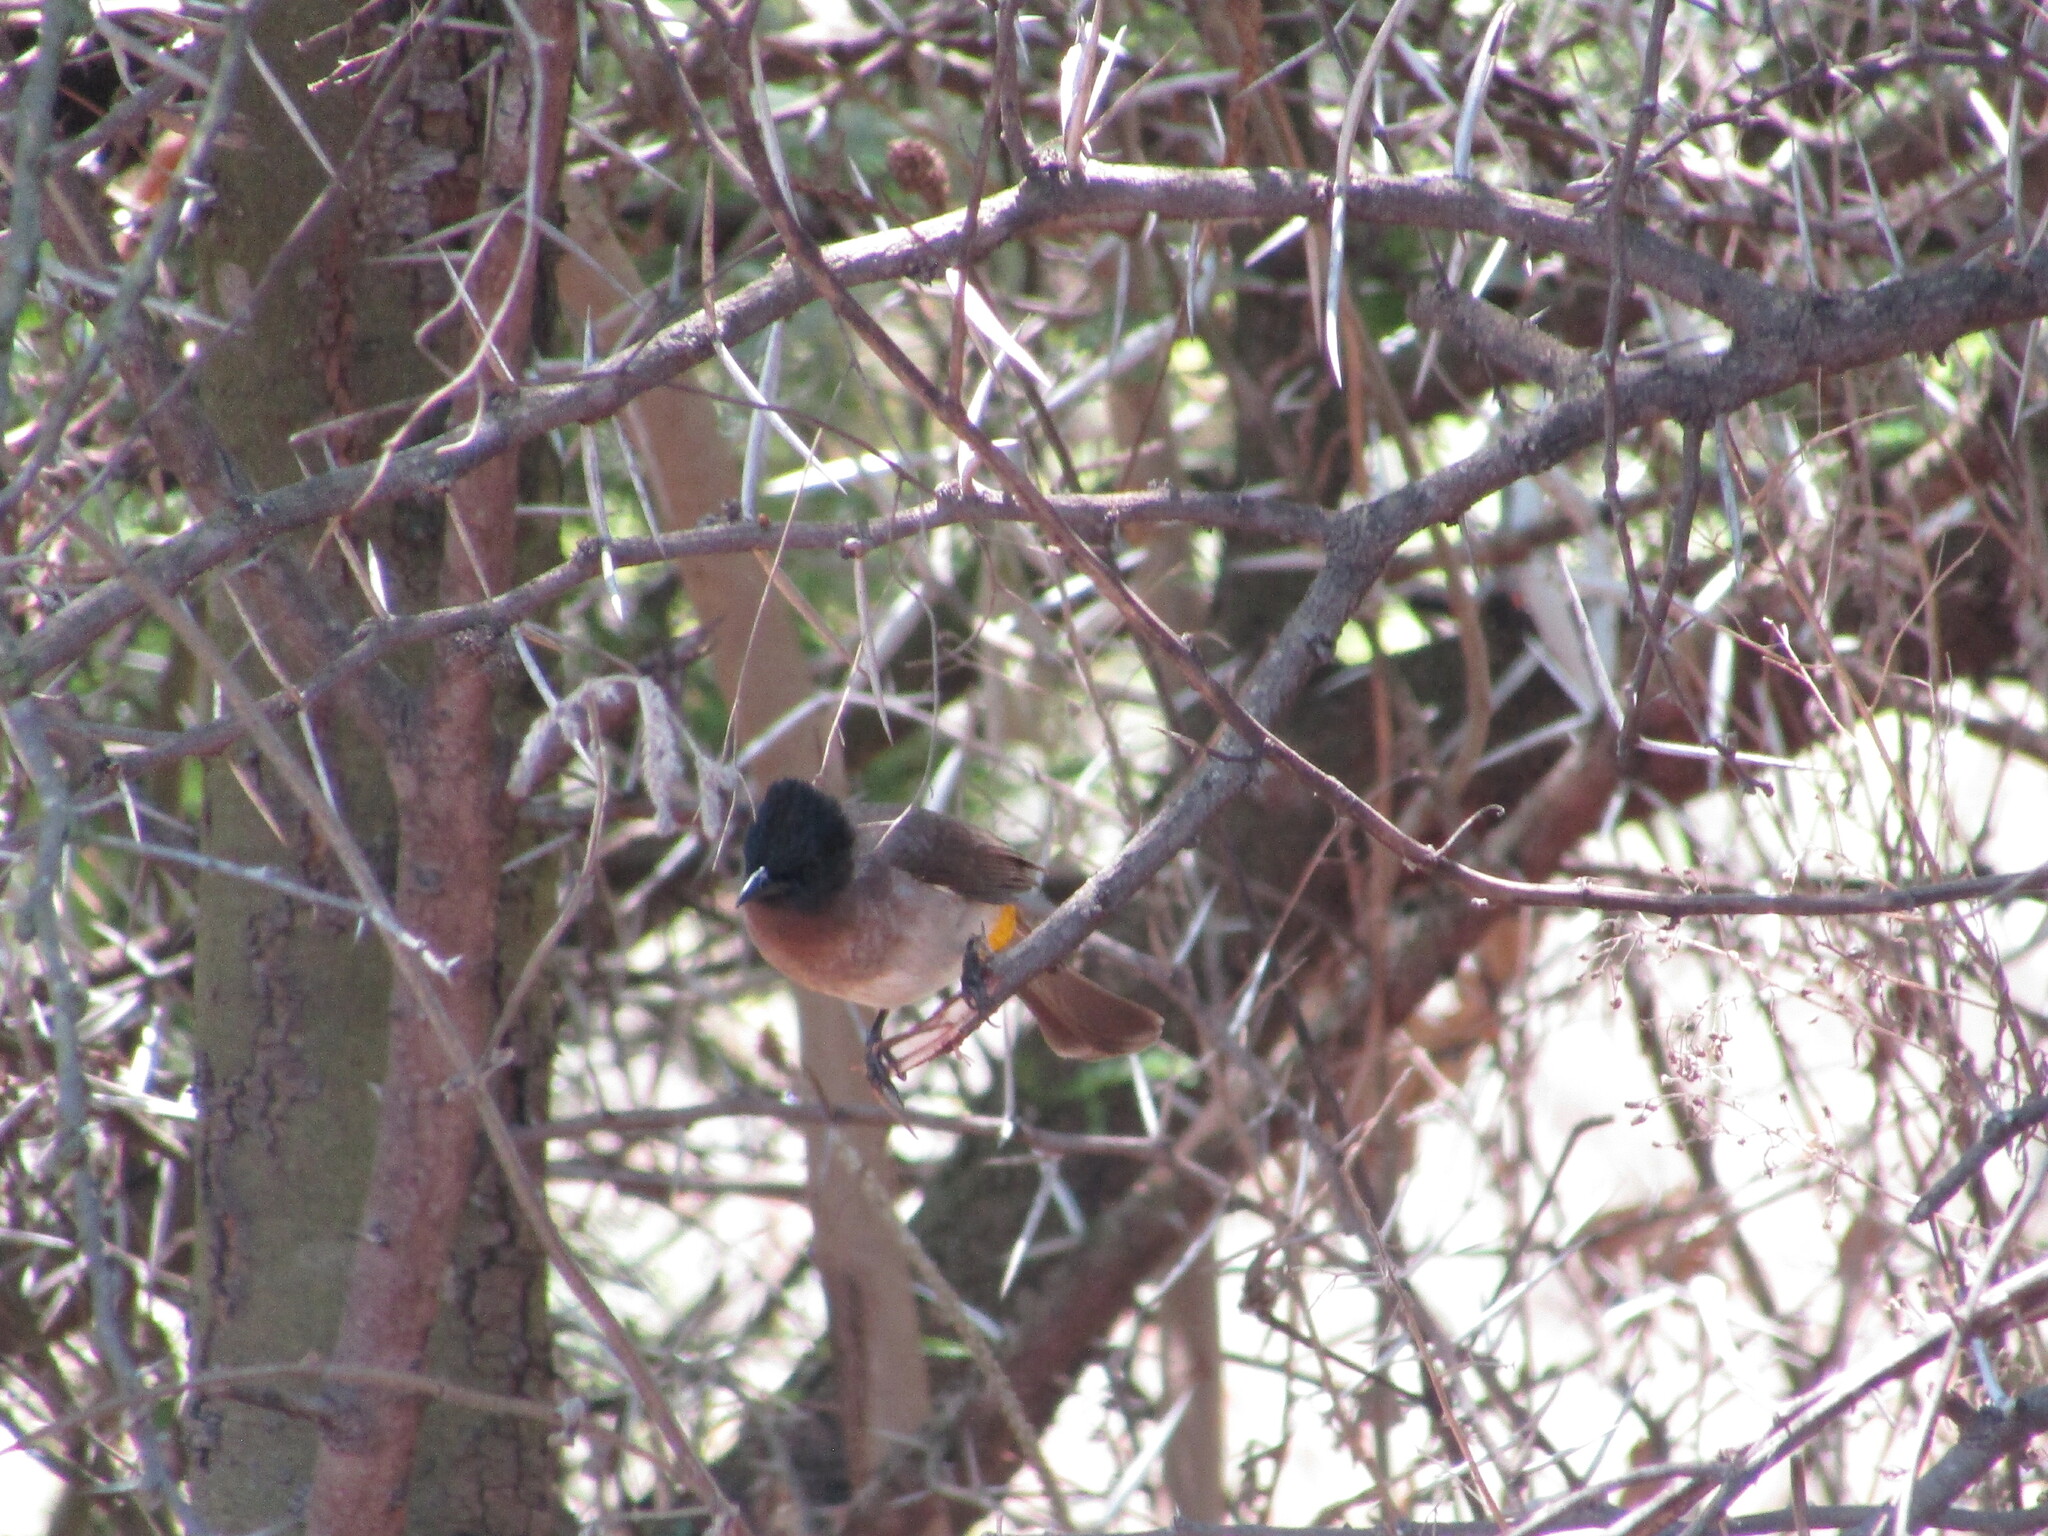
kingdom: Animalia
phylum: Chordata
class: Aves
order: Passeriformes
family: Pycnonotidae
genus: Pycnonotus
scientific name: Pycnonotus barbatus
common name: Common bulbul
